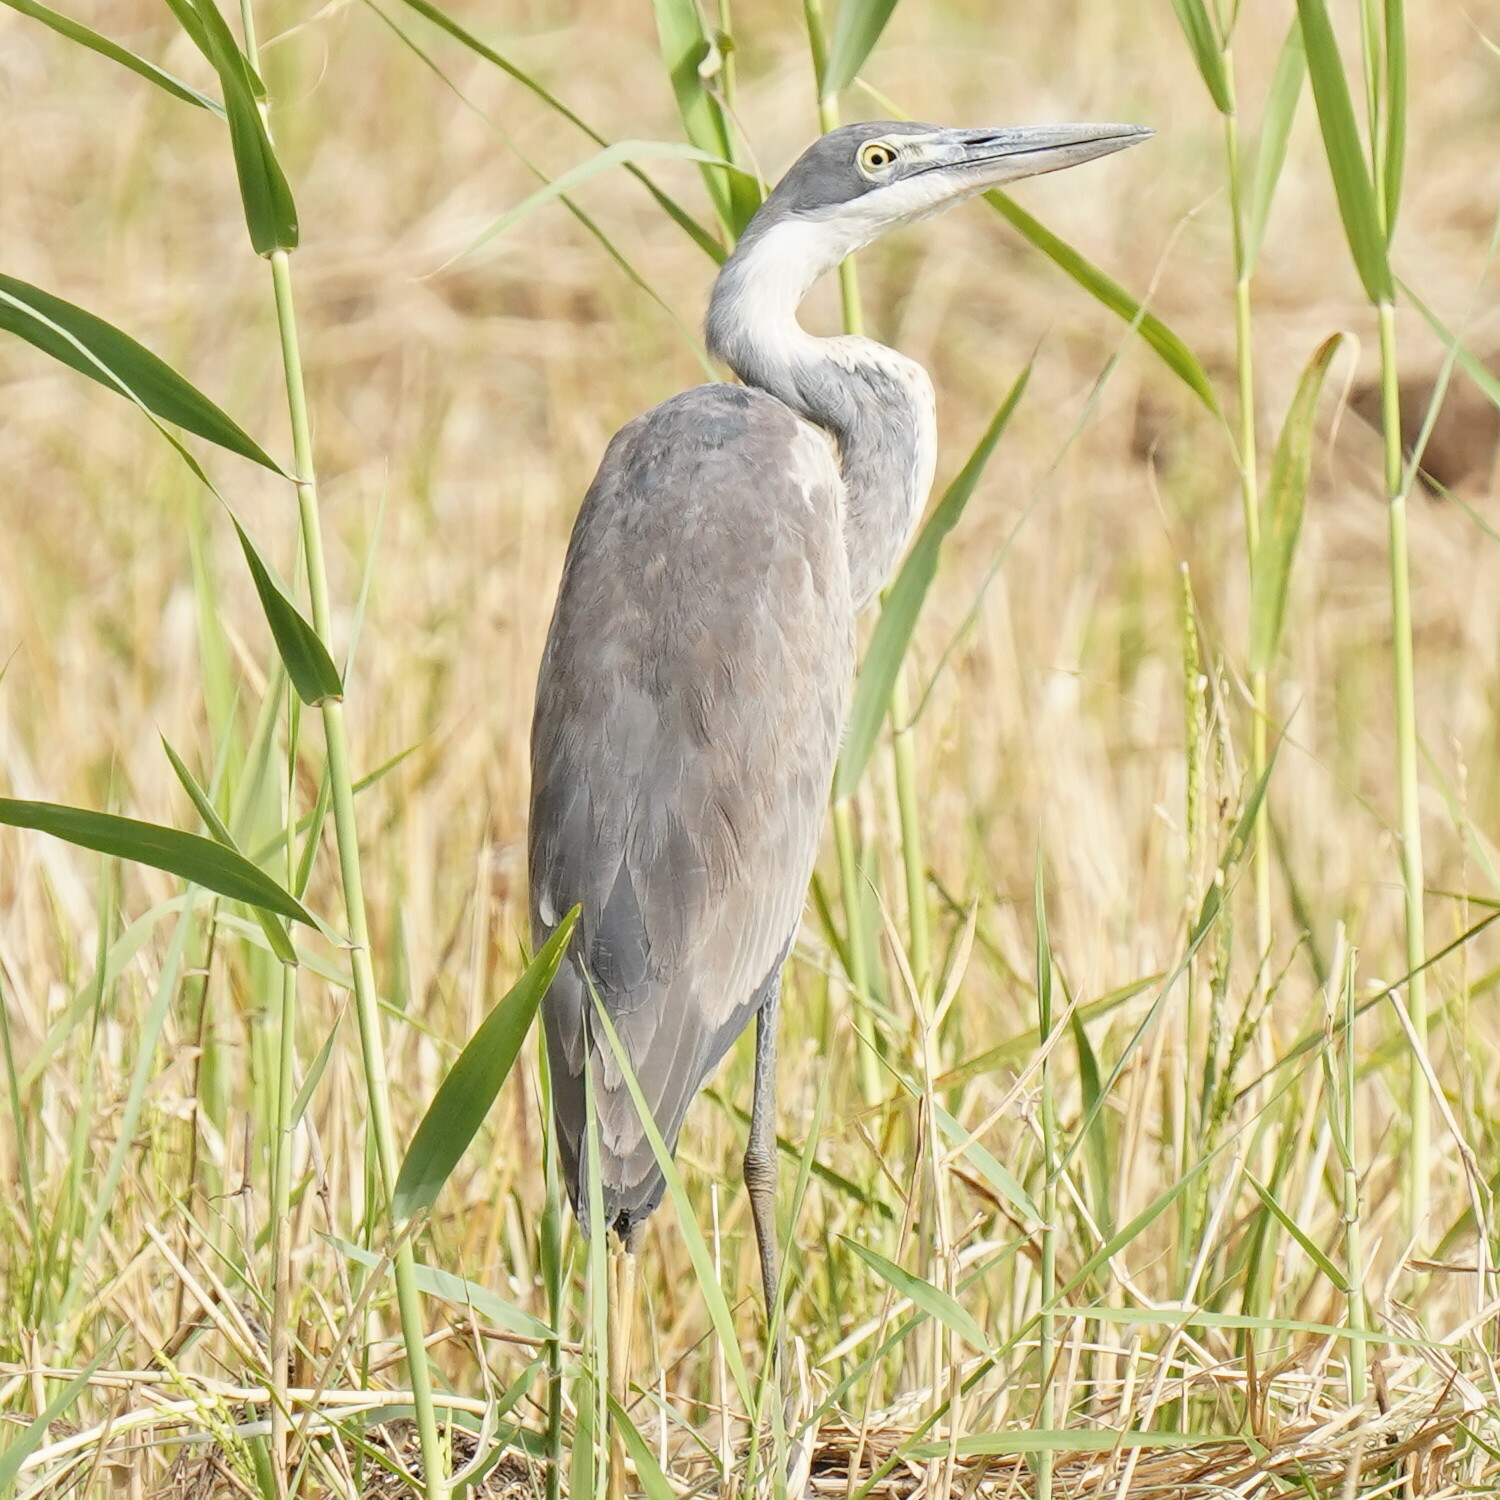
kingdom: Animalia
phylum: Chordata
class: Aves
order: Pelecaniformes
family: Ardeidae
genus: Ardea
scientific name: Ardea melanocephala
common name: Black-headed heron
